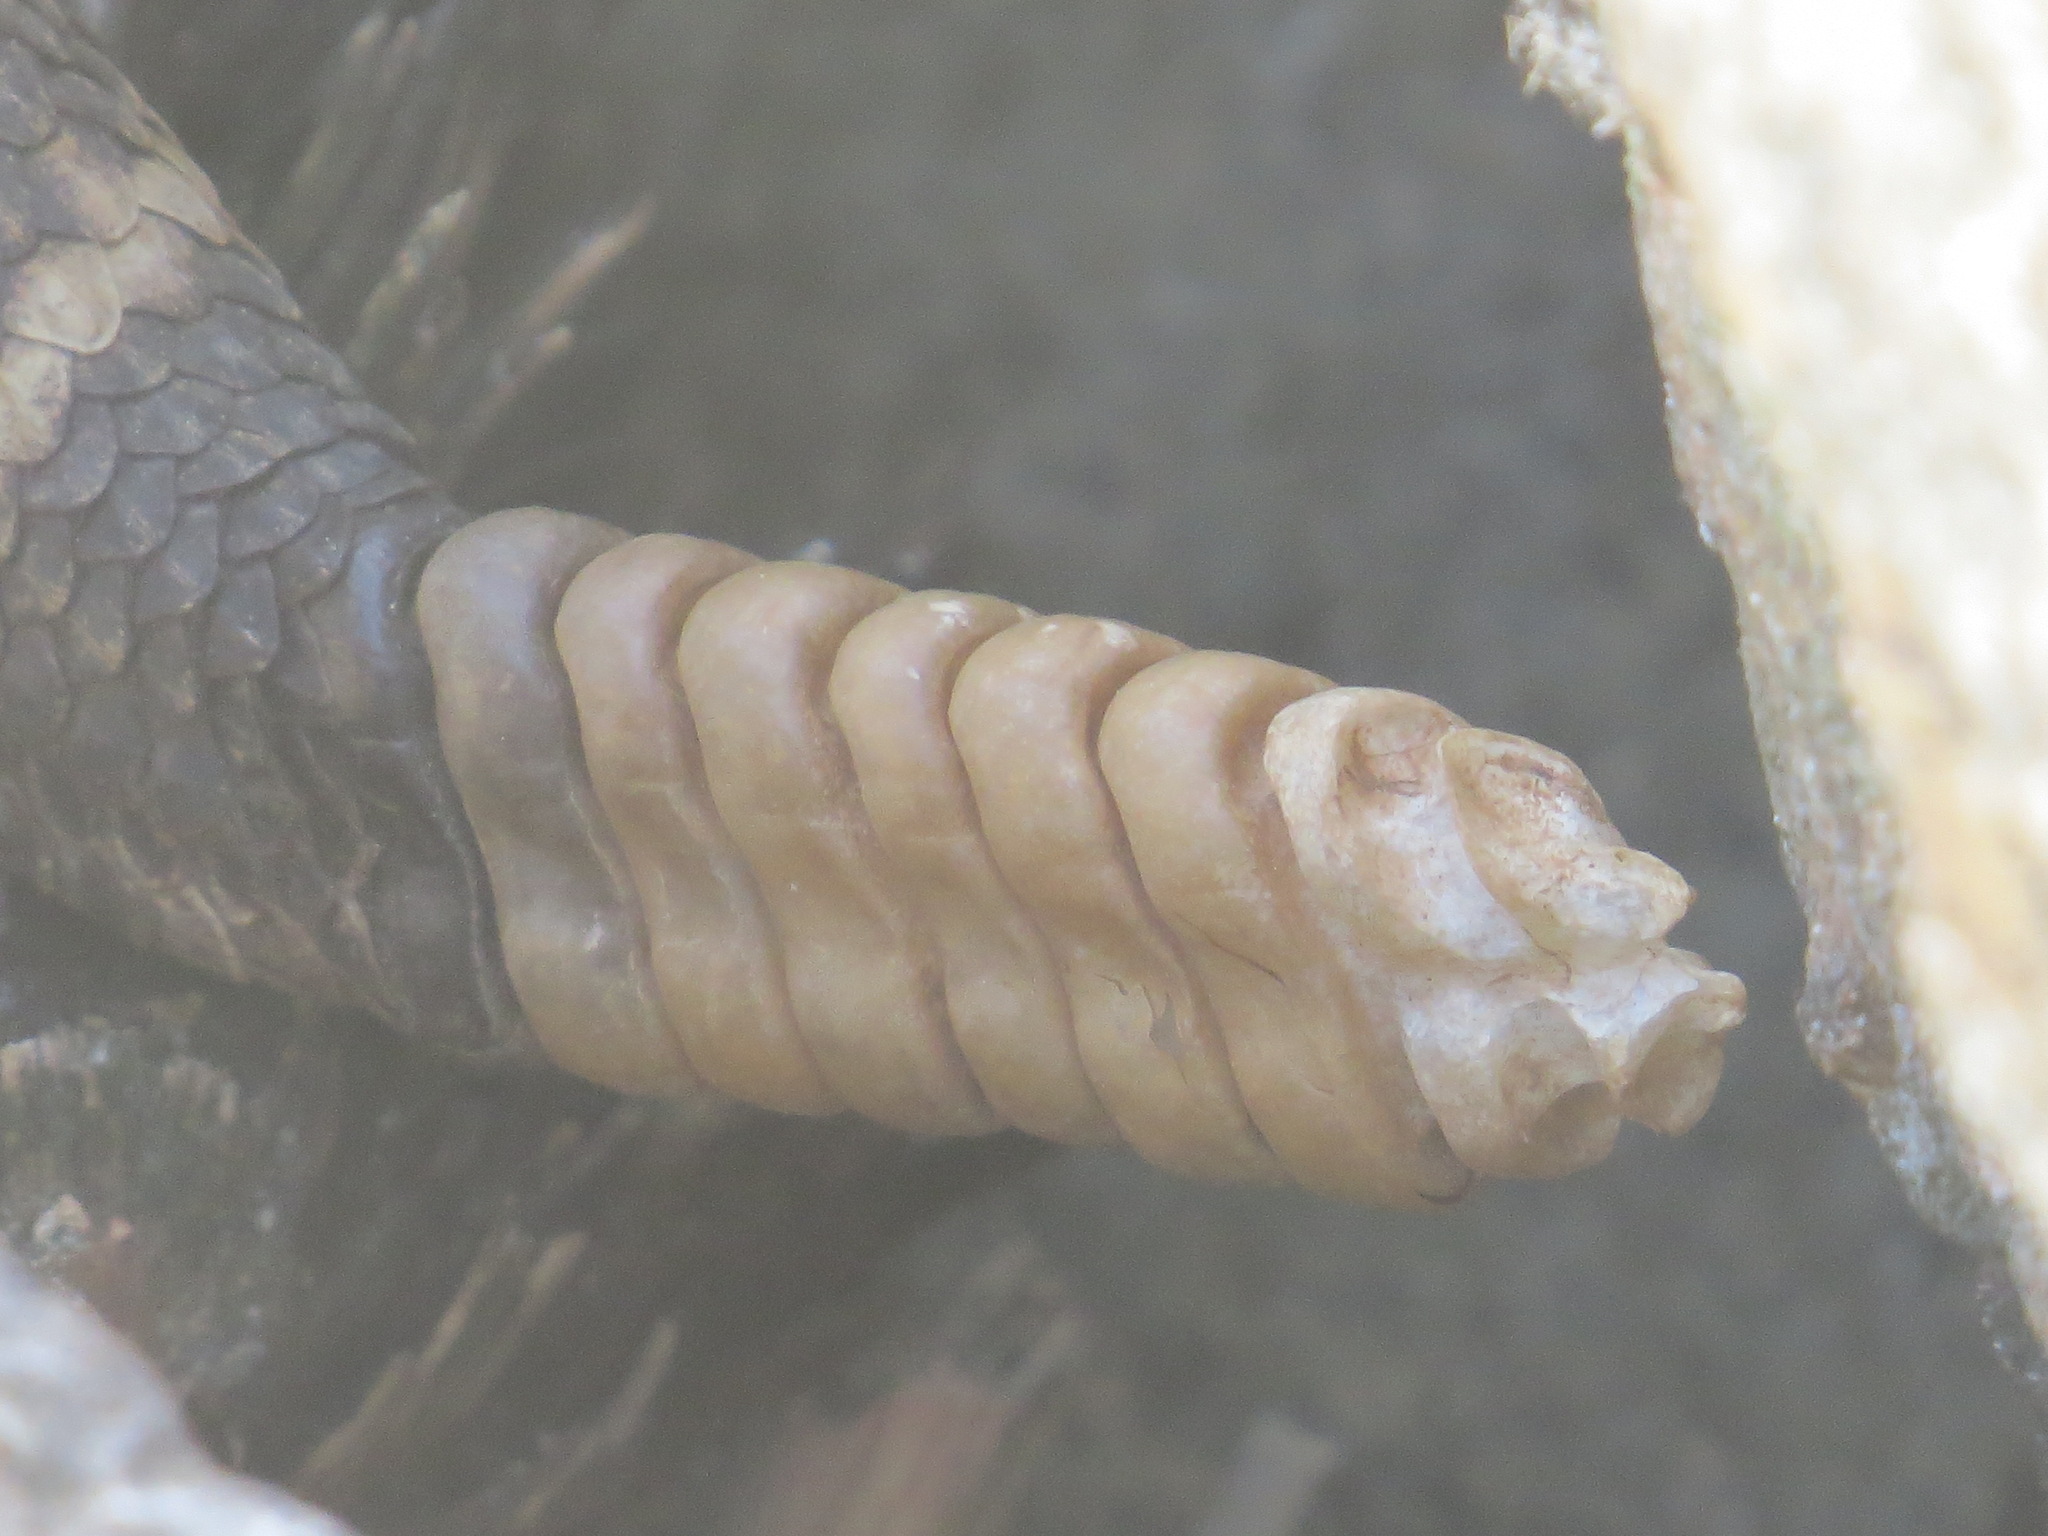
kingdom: Animalia
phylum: Chordata
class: Squamata
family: Viperidae
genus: Crotalus
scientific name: Crotalus oreganus
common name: Abyssus
